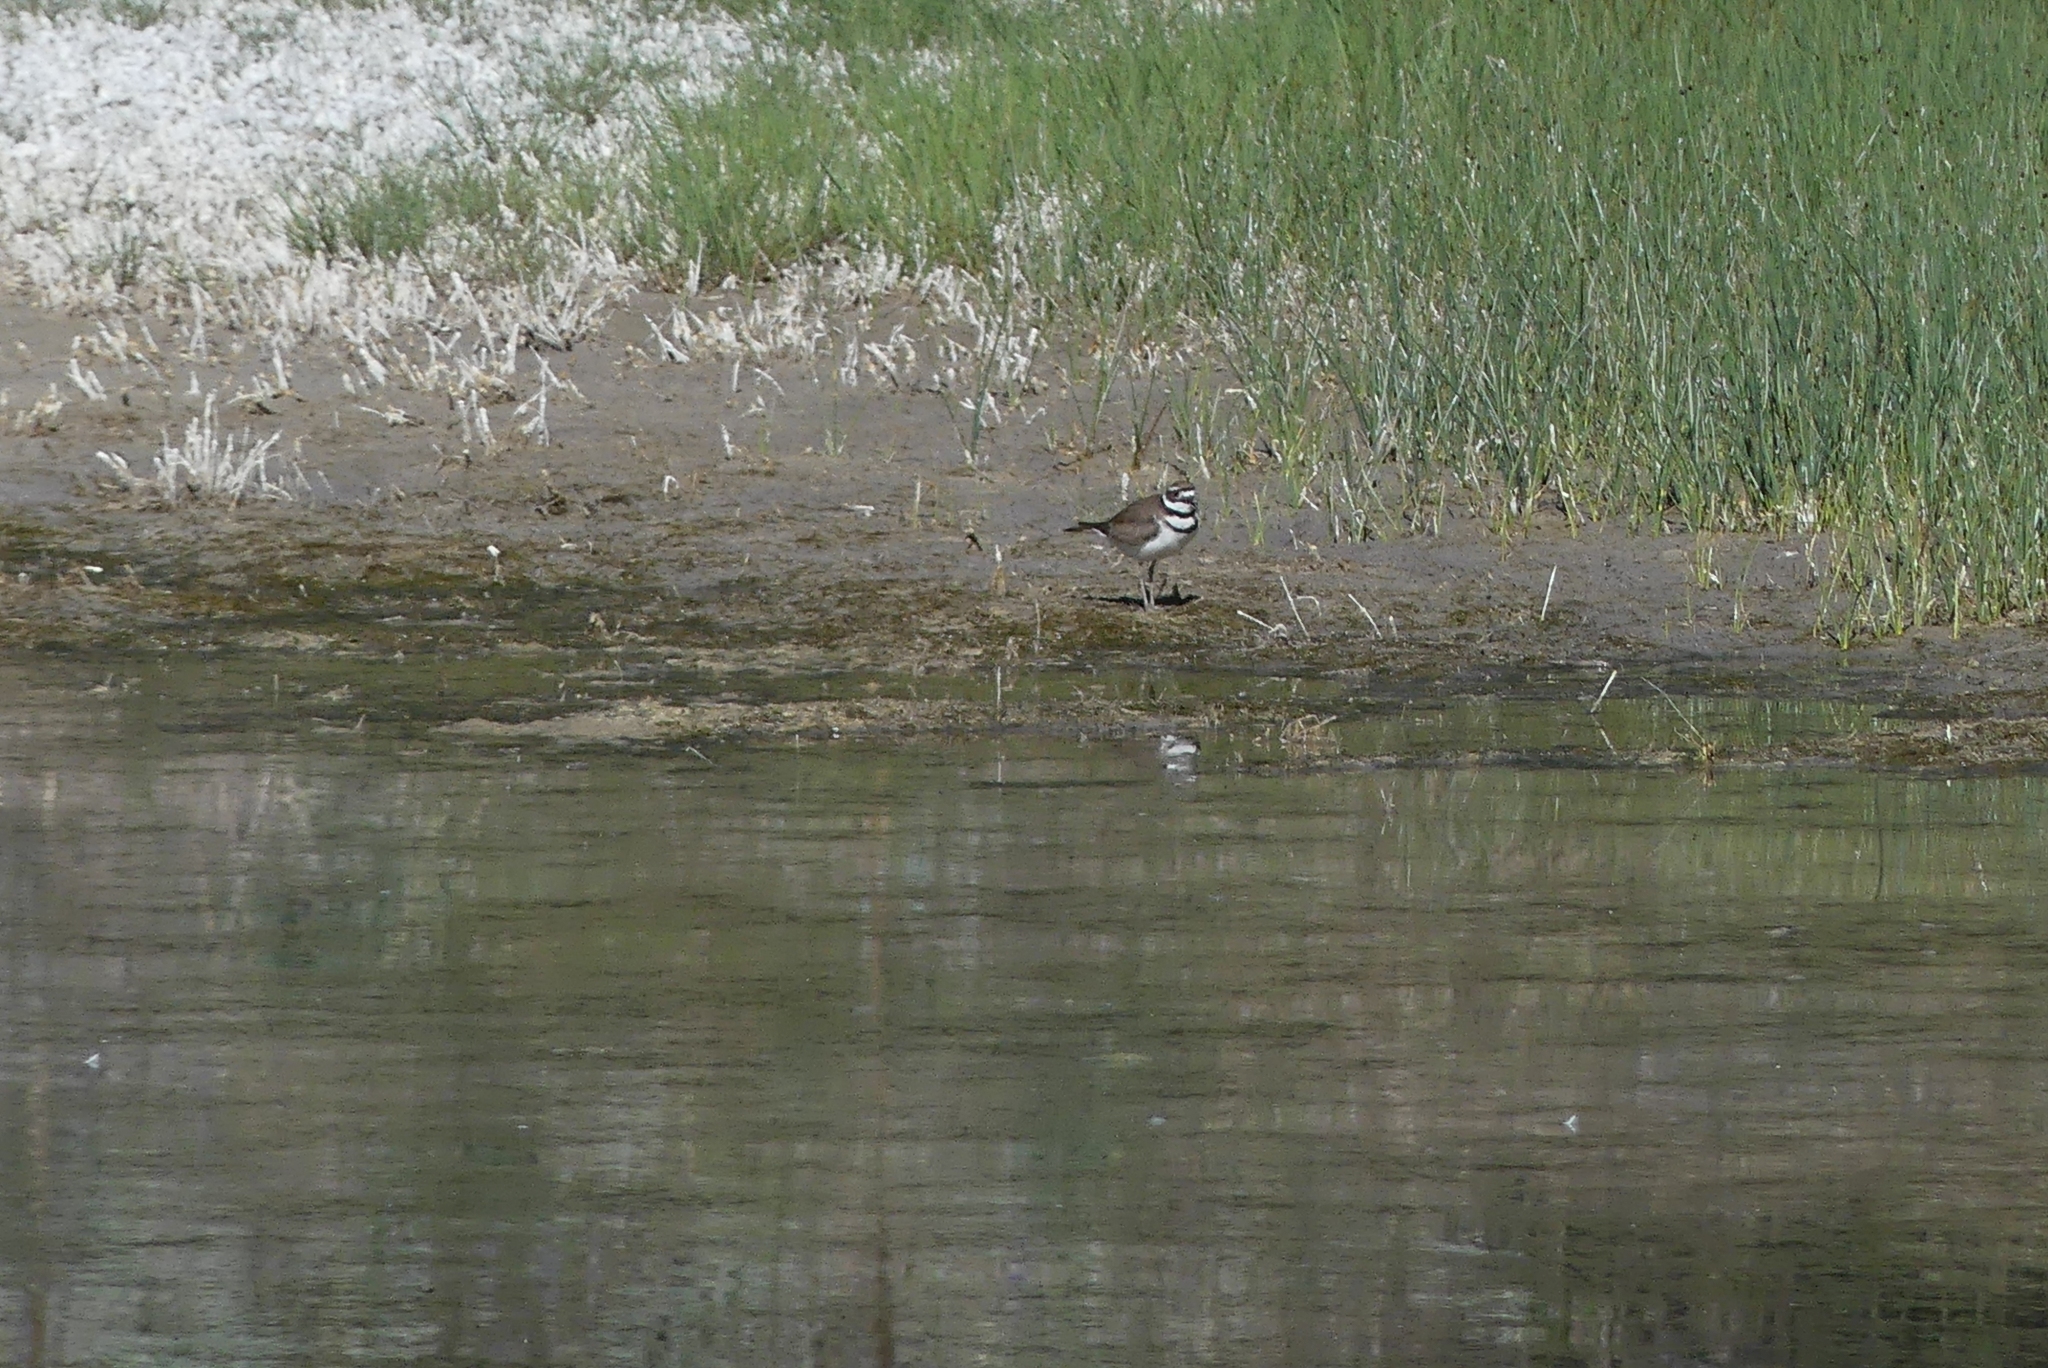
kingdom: Animalia
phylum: Chordata
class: Aves
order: Charadriiformes
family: Charadriidae
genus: Charadrius
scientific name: Charadrius vociferus
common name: Killdeer
